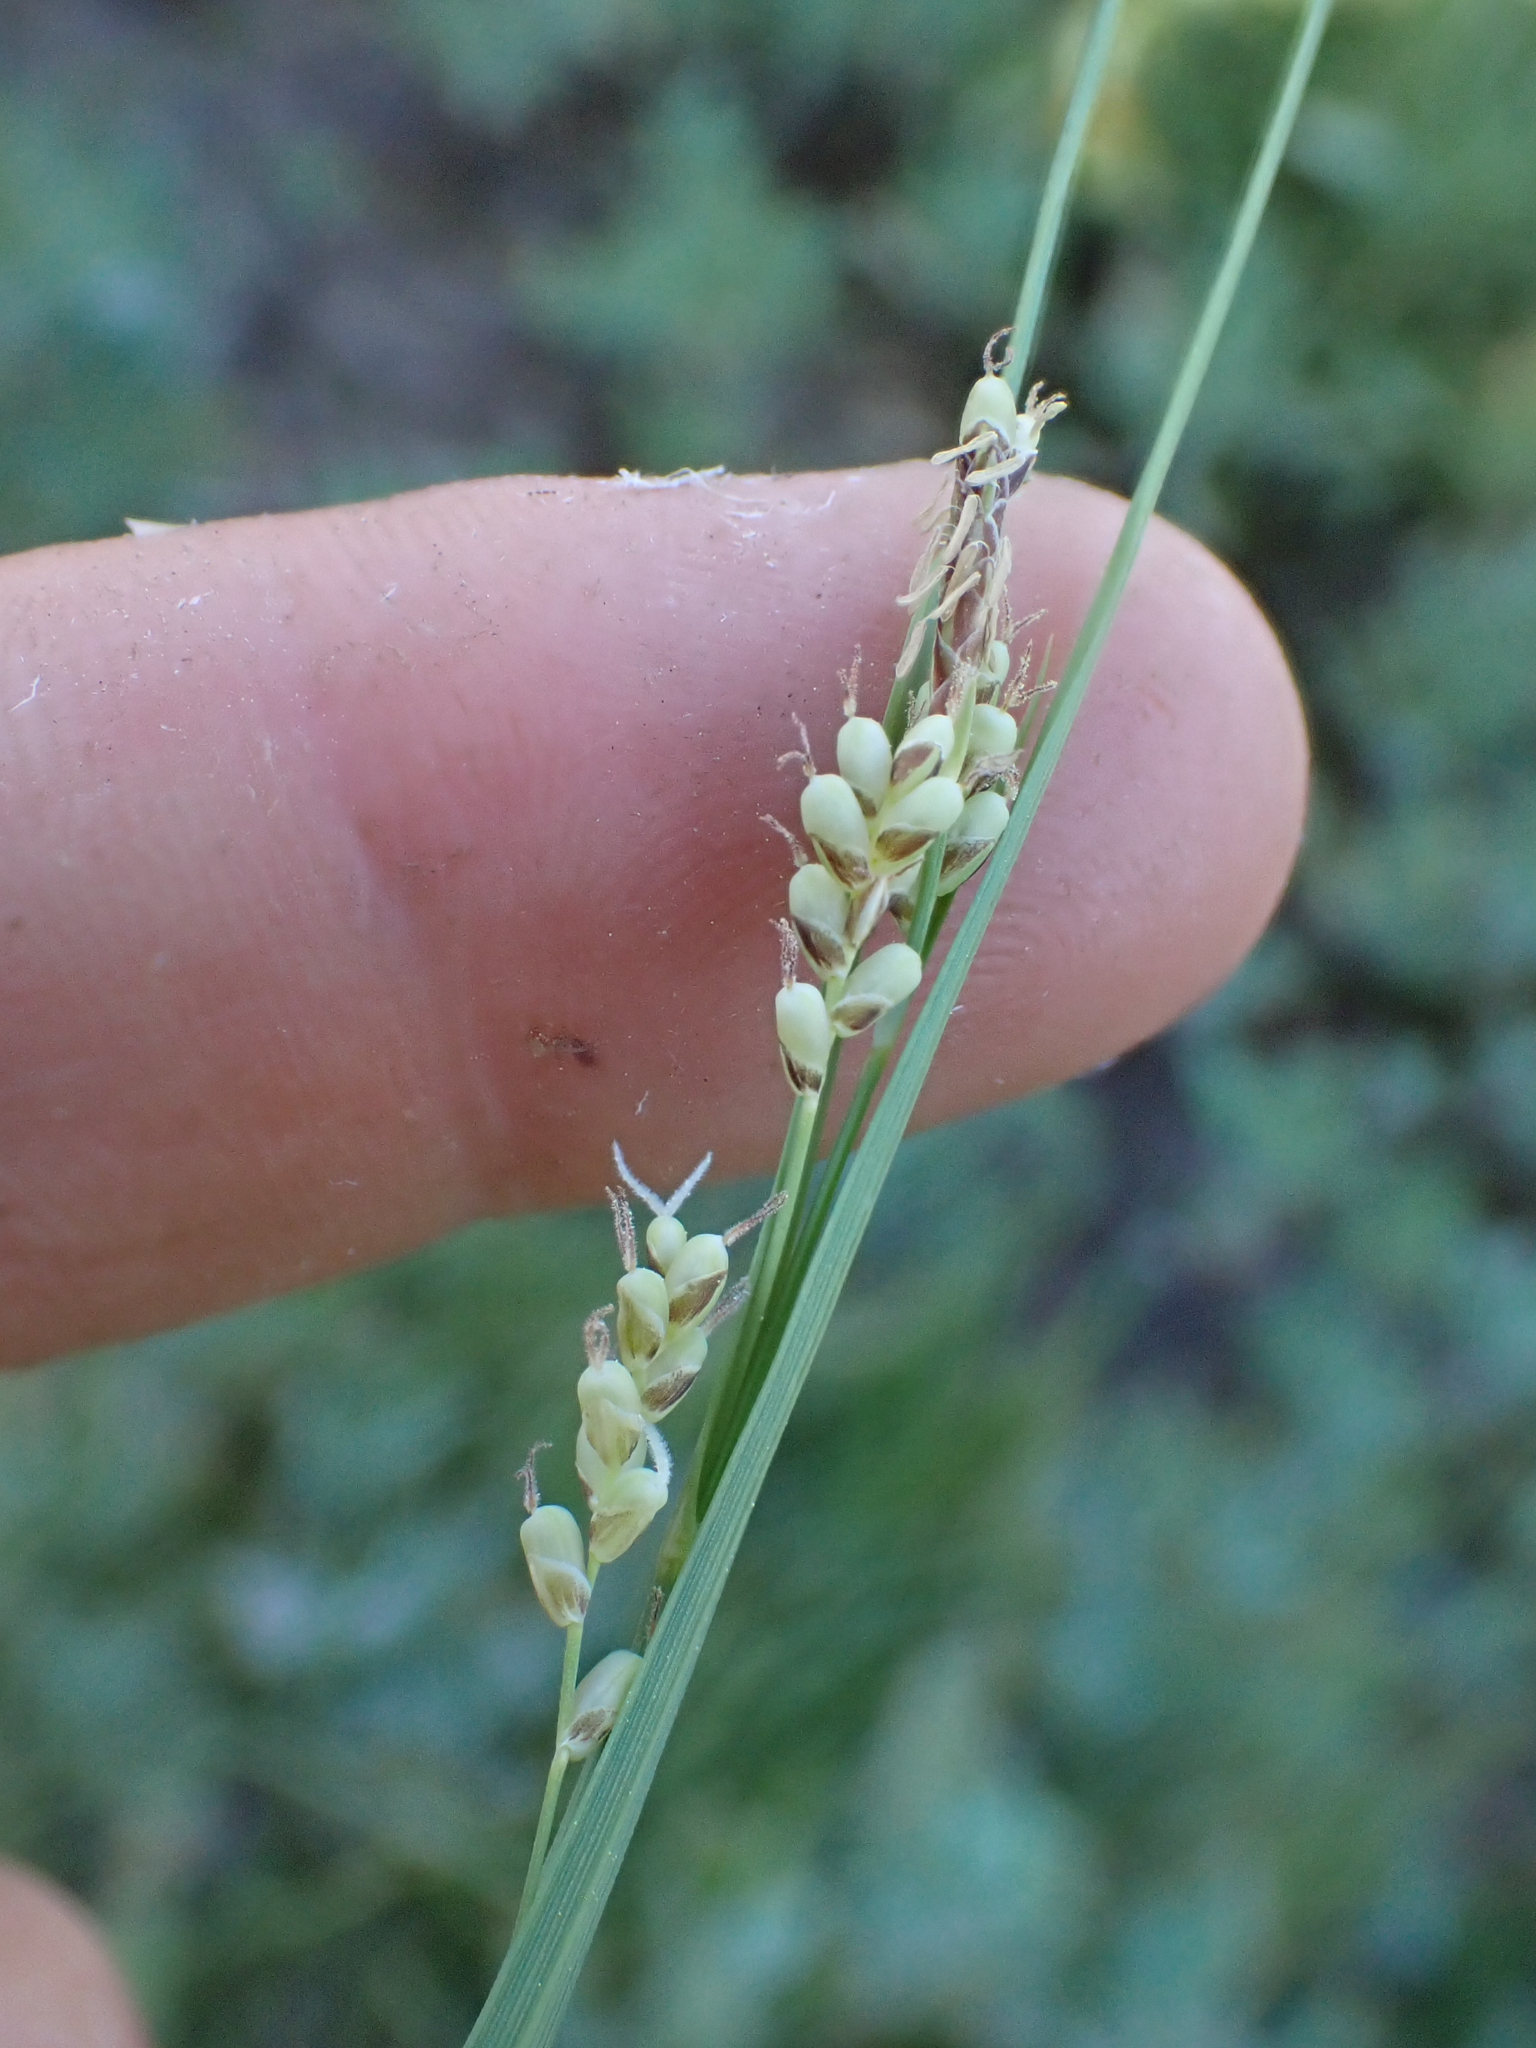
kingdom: Plantae
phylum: Tracheophyta
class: Liliopsida
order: Poales
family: Cyperaceae
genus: Carex
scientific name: Carex aurea
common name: Golden sedge
